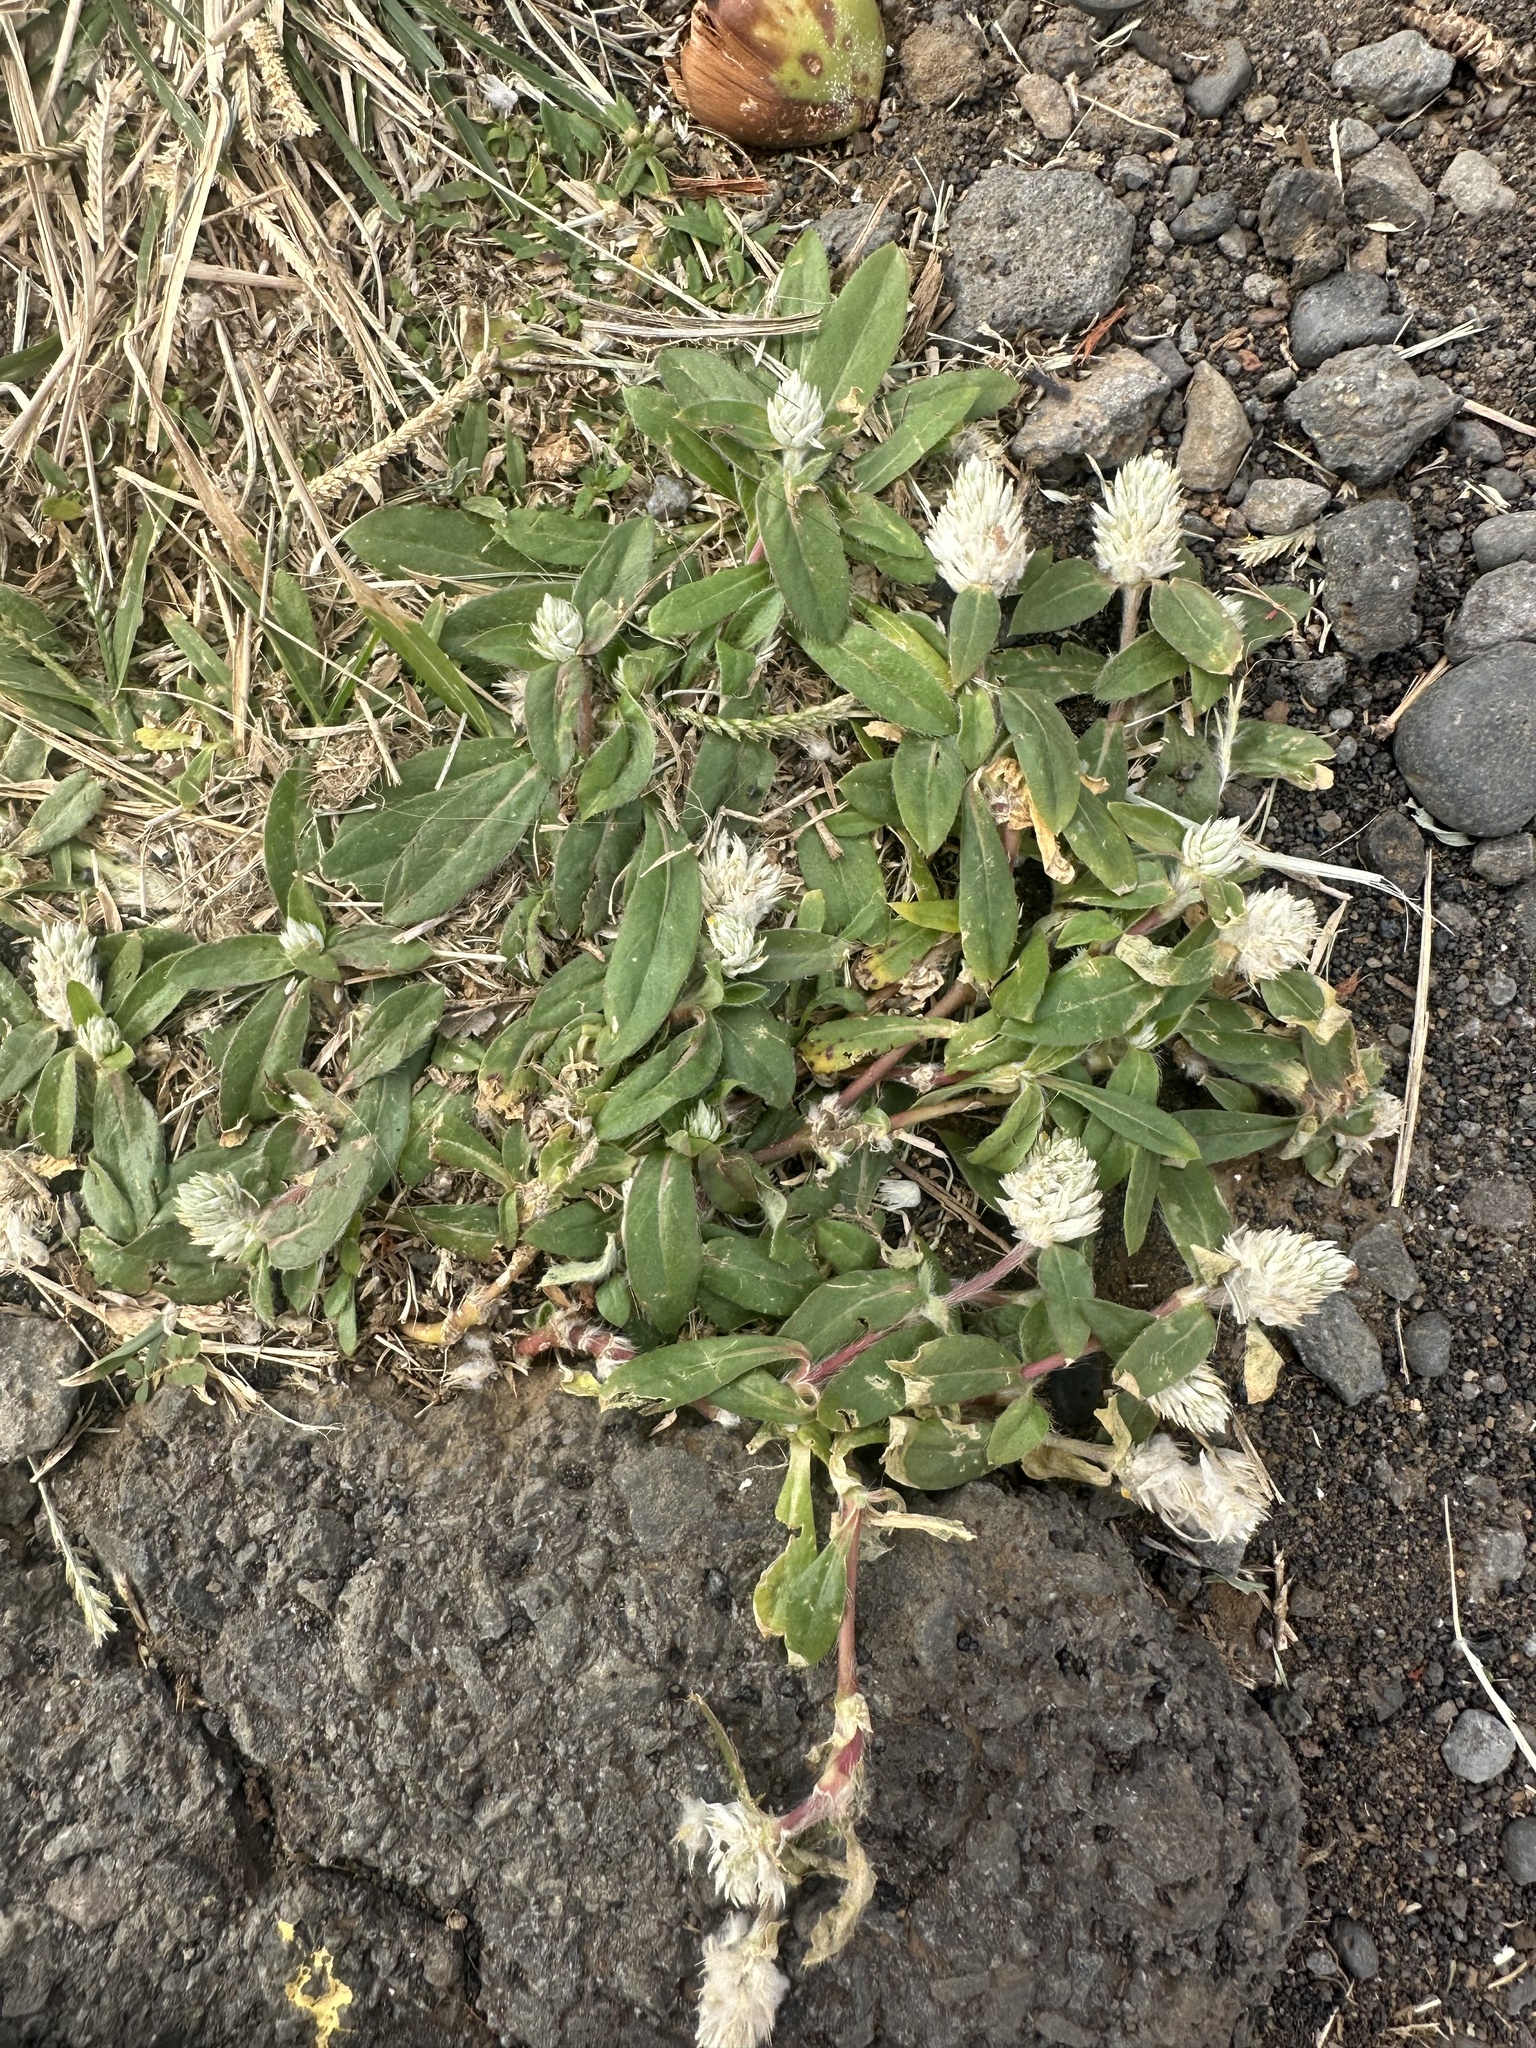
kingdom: Plantae
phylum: Tracheophyta
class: Magnoliopsida
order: Caryophyllales
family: Amaranthaceae
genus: Gomphrena
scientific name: Gomphrena celosioides
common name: Gomphrena-weed
